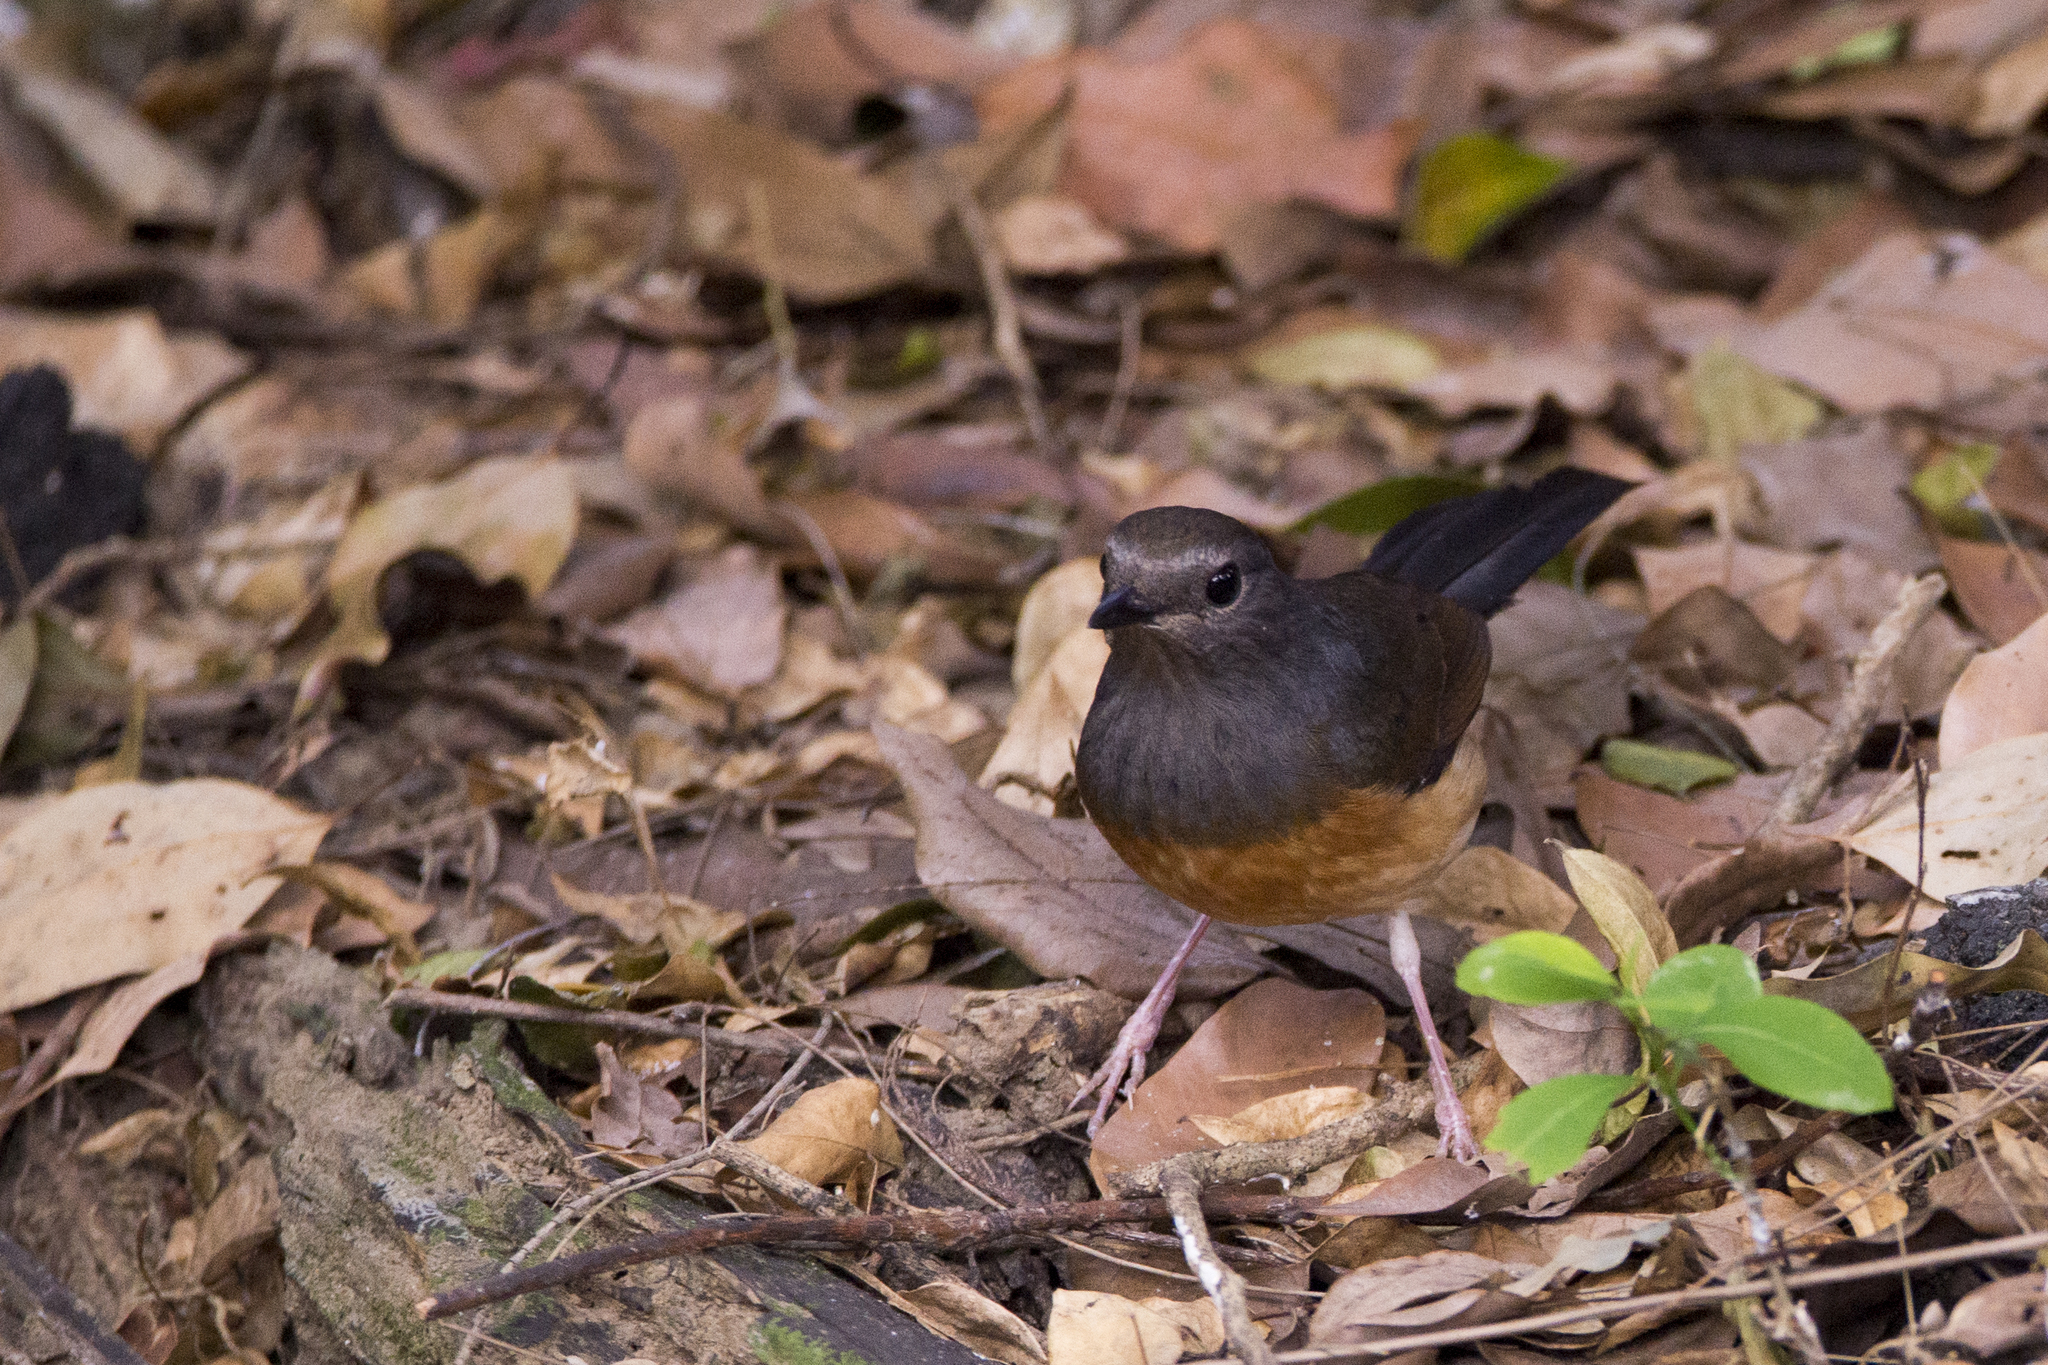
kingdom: Animalia
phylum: Chordata
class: Aves
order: Passeriformes
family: Muscicapidae
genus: Copsychus
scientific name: Copsychus malabaricus
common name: White-rumped shama
